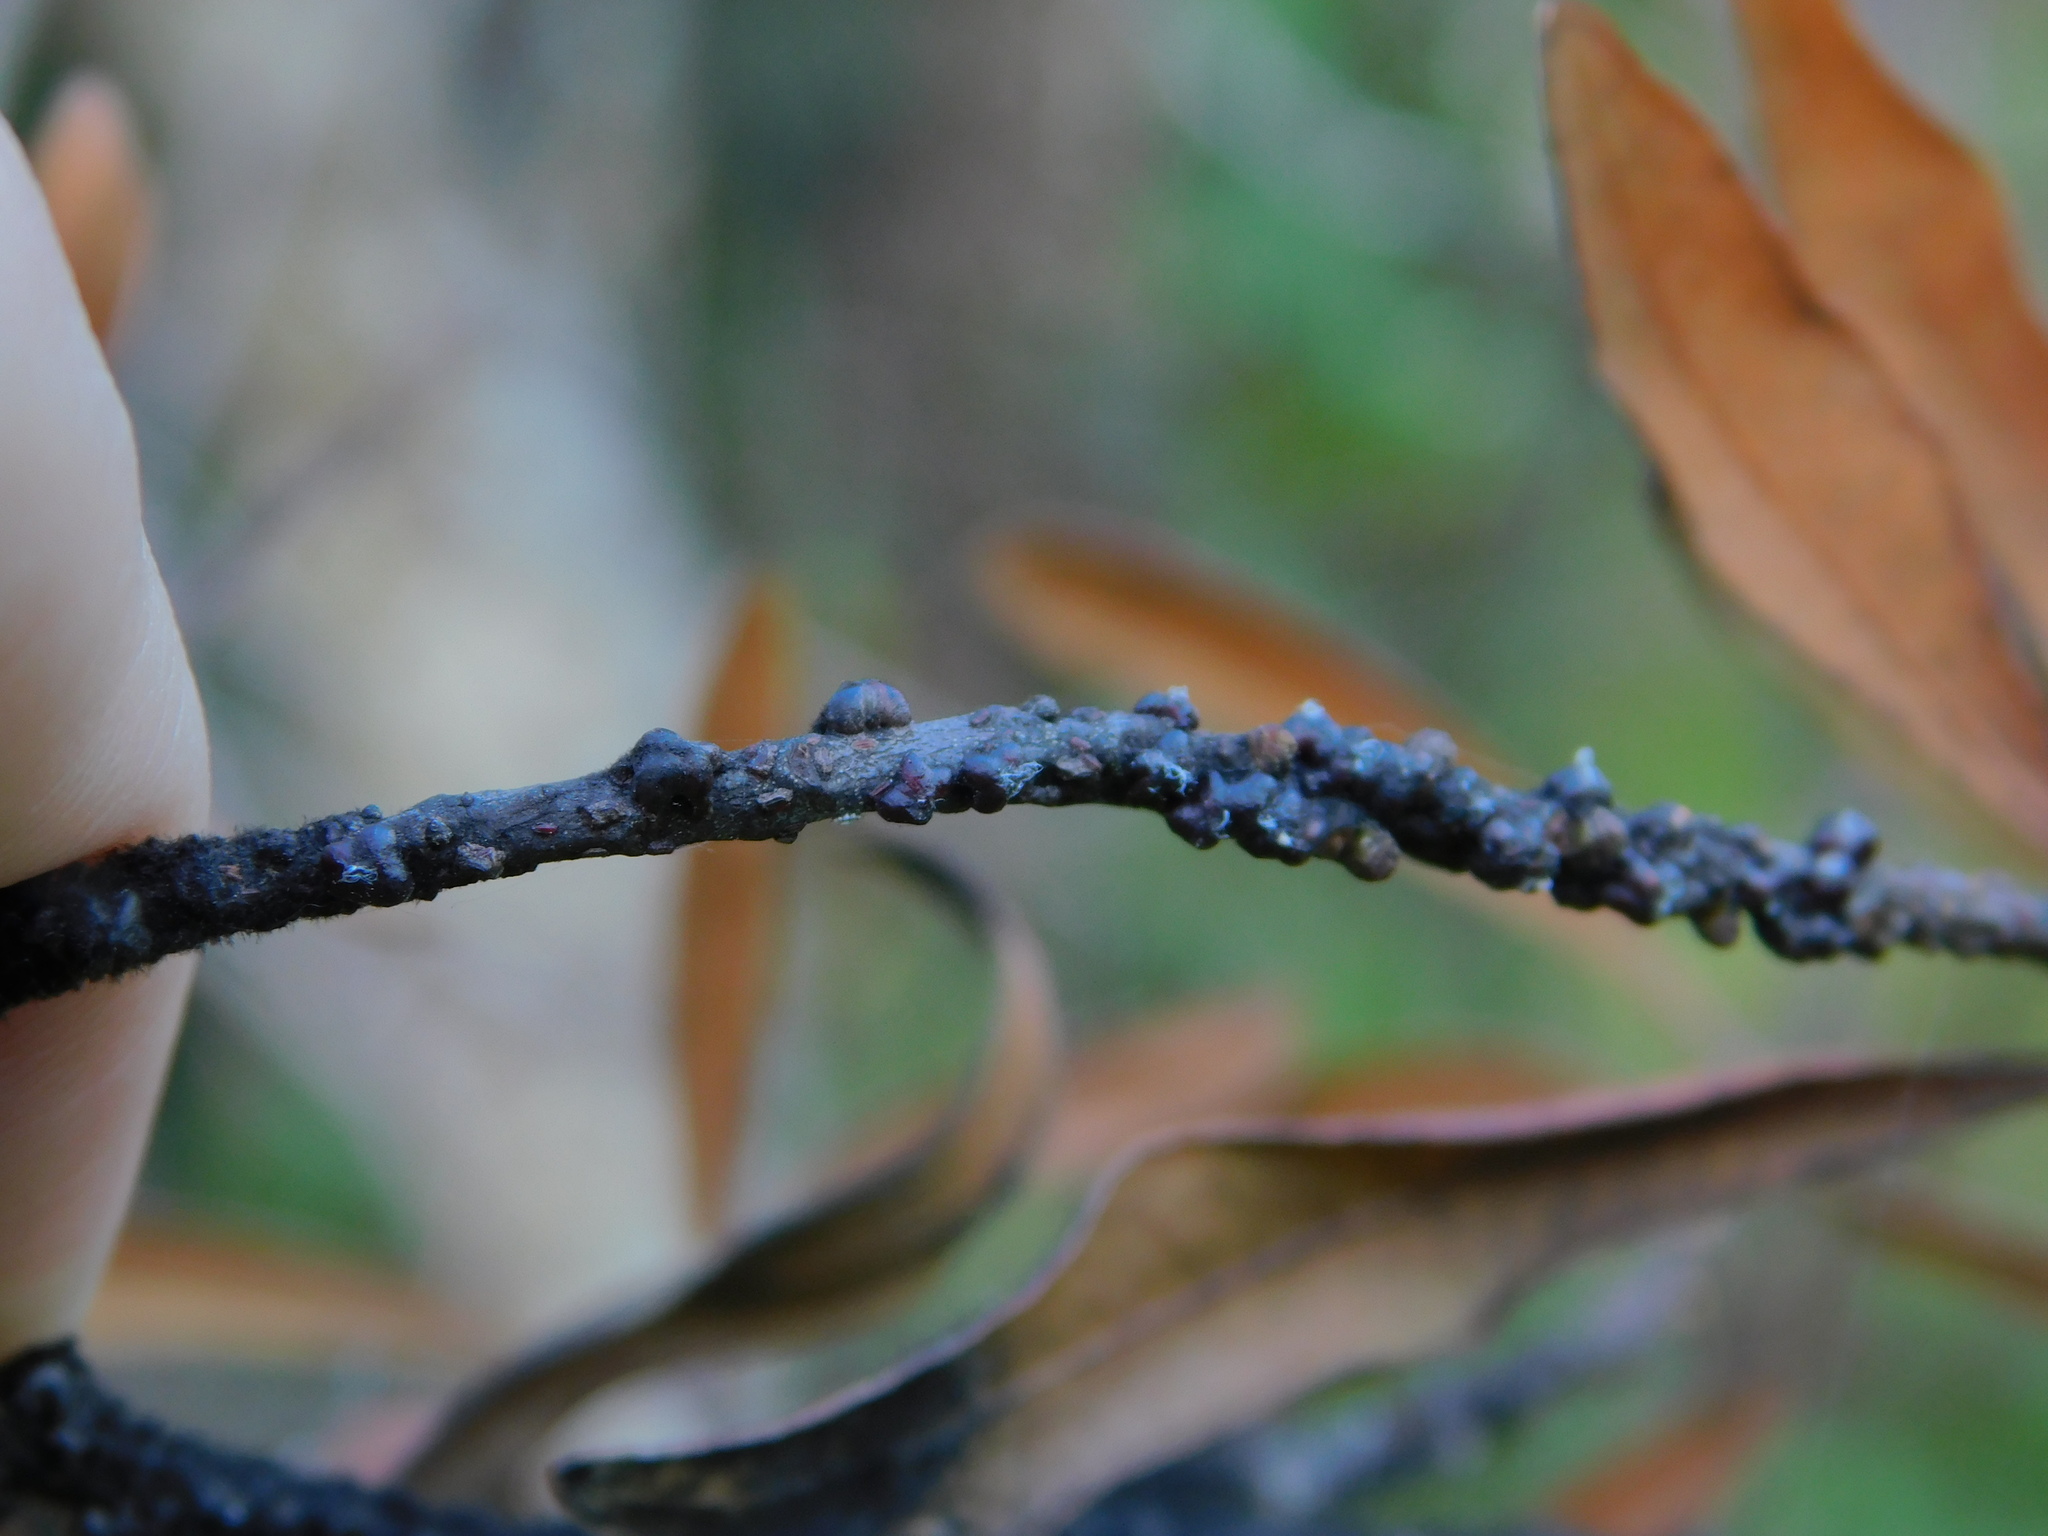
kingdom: Animalia
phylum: Arthropoda
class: Insecta
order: Hemiptera
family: Kerriidae
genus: Paratachardina
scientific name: Paratachardina pseudolobata
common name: Lobate lac scale
